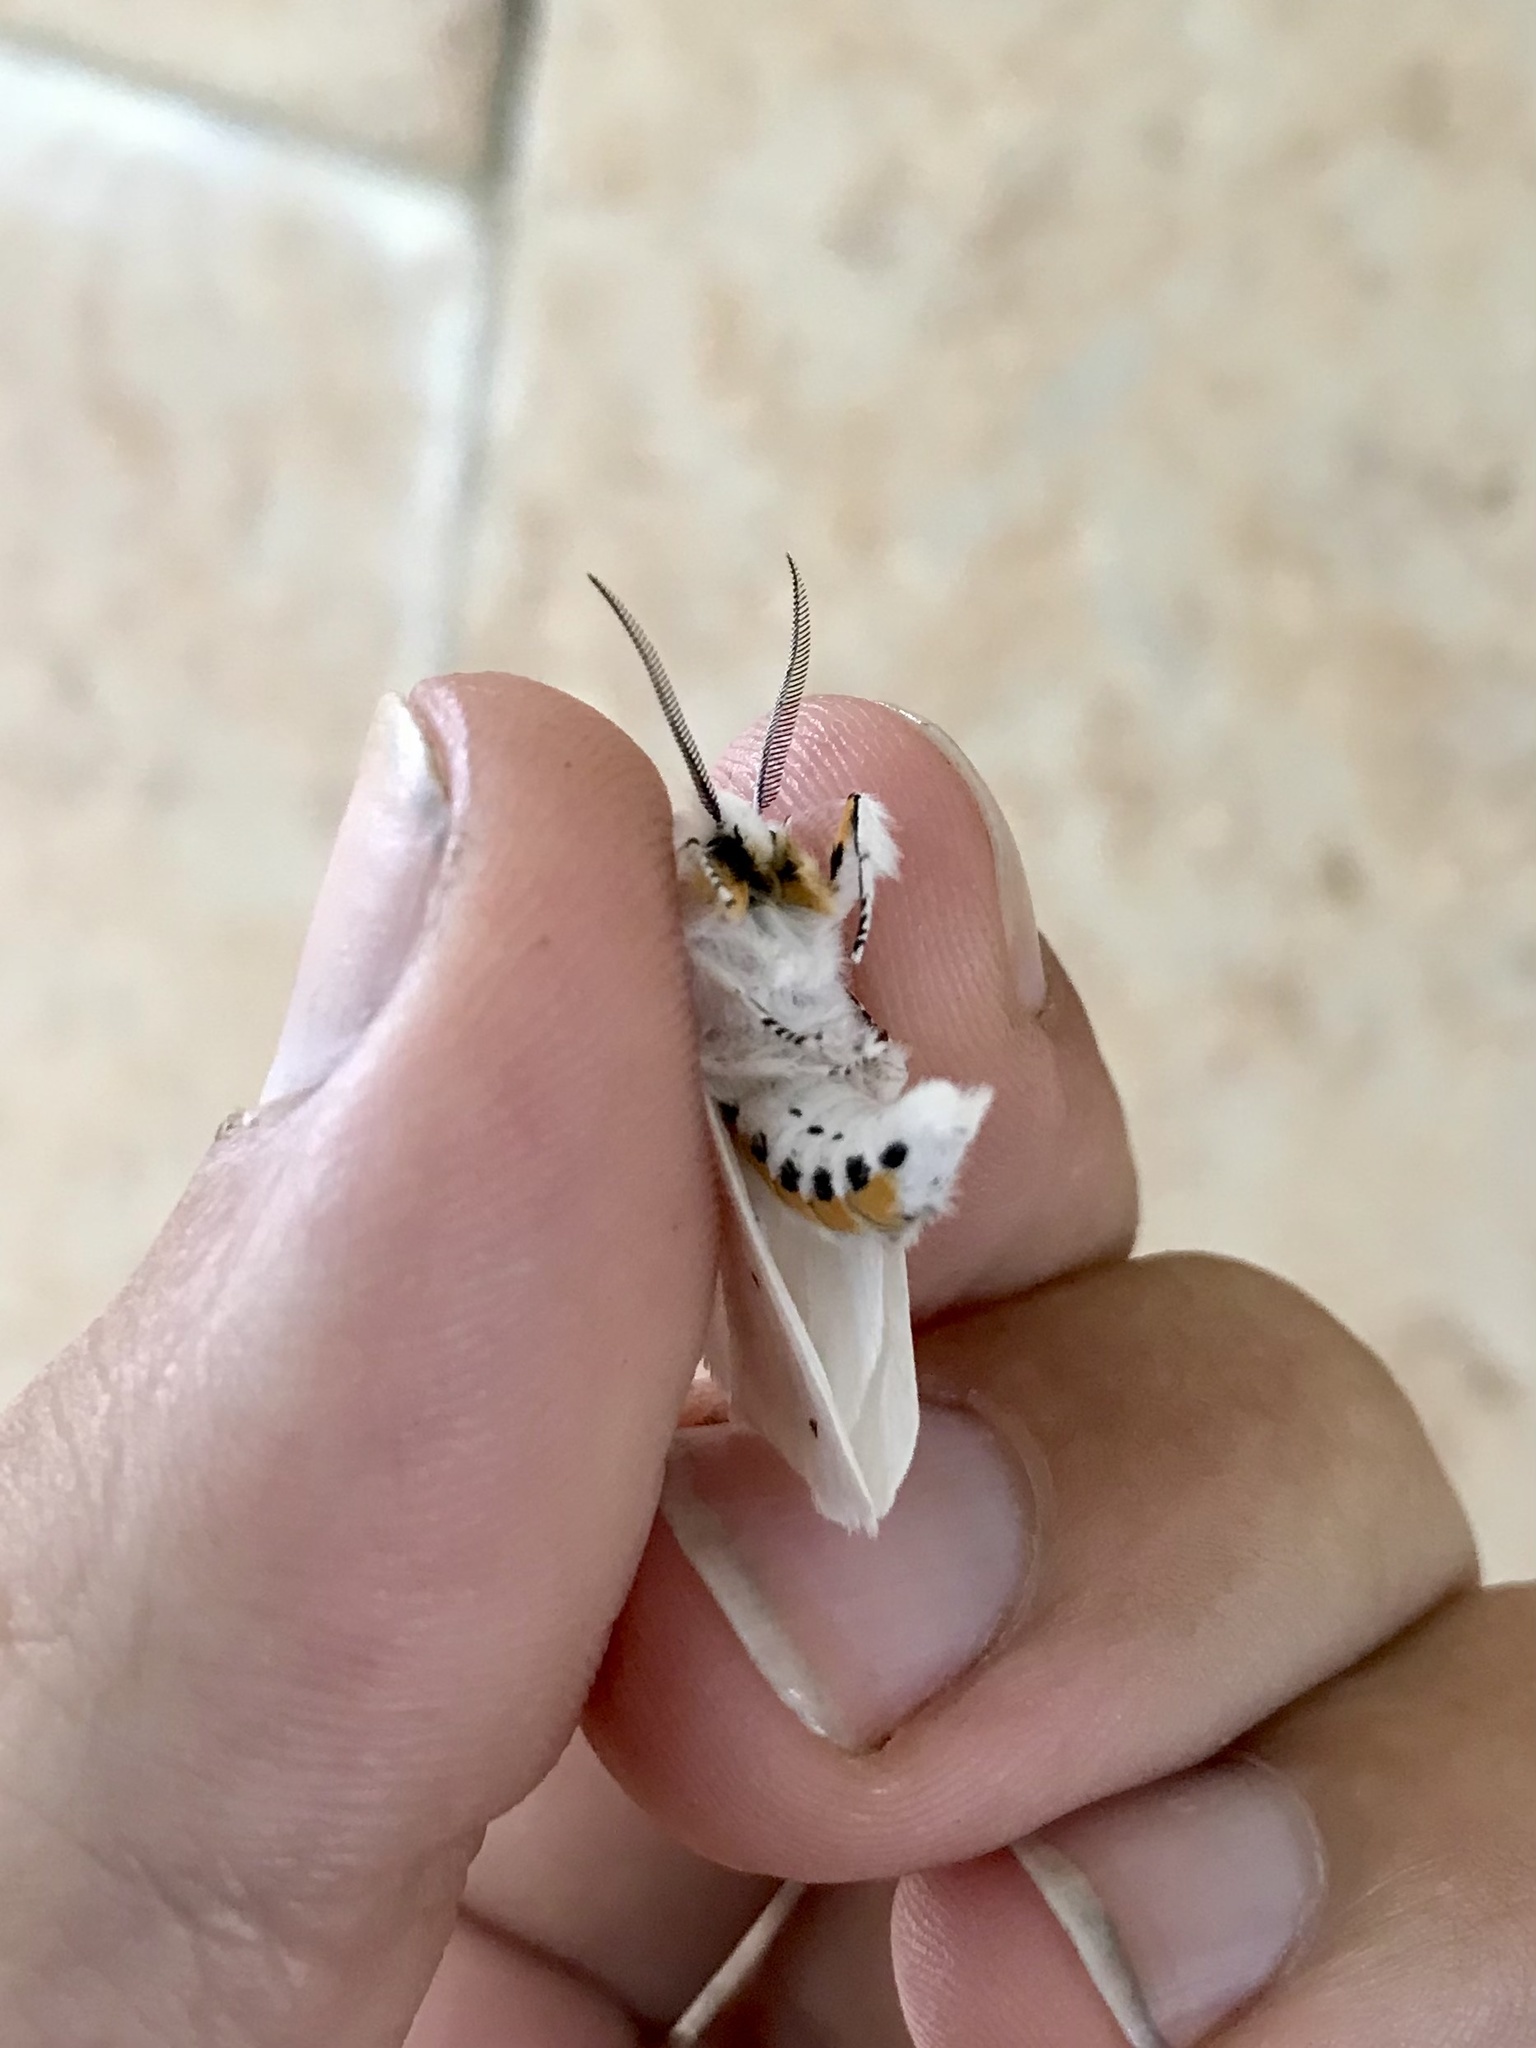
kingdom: Animalia
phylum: Arthropoda
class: Insecta
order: Lepidoptera
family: Erebidae
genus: Spilosoma
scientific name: Spilosoma virginica
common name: Virginia tiger moth
